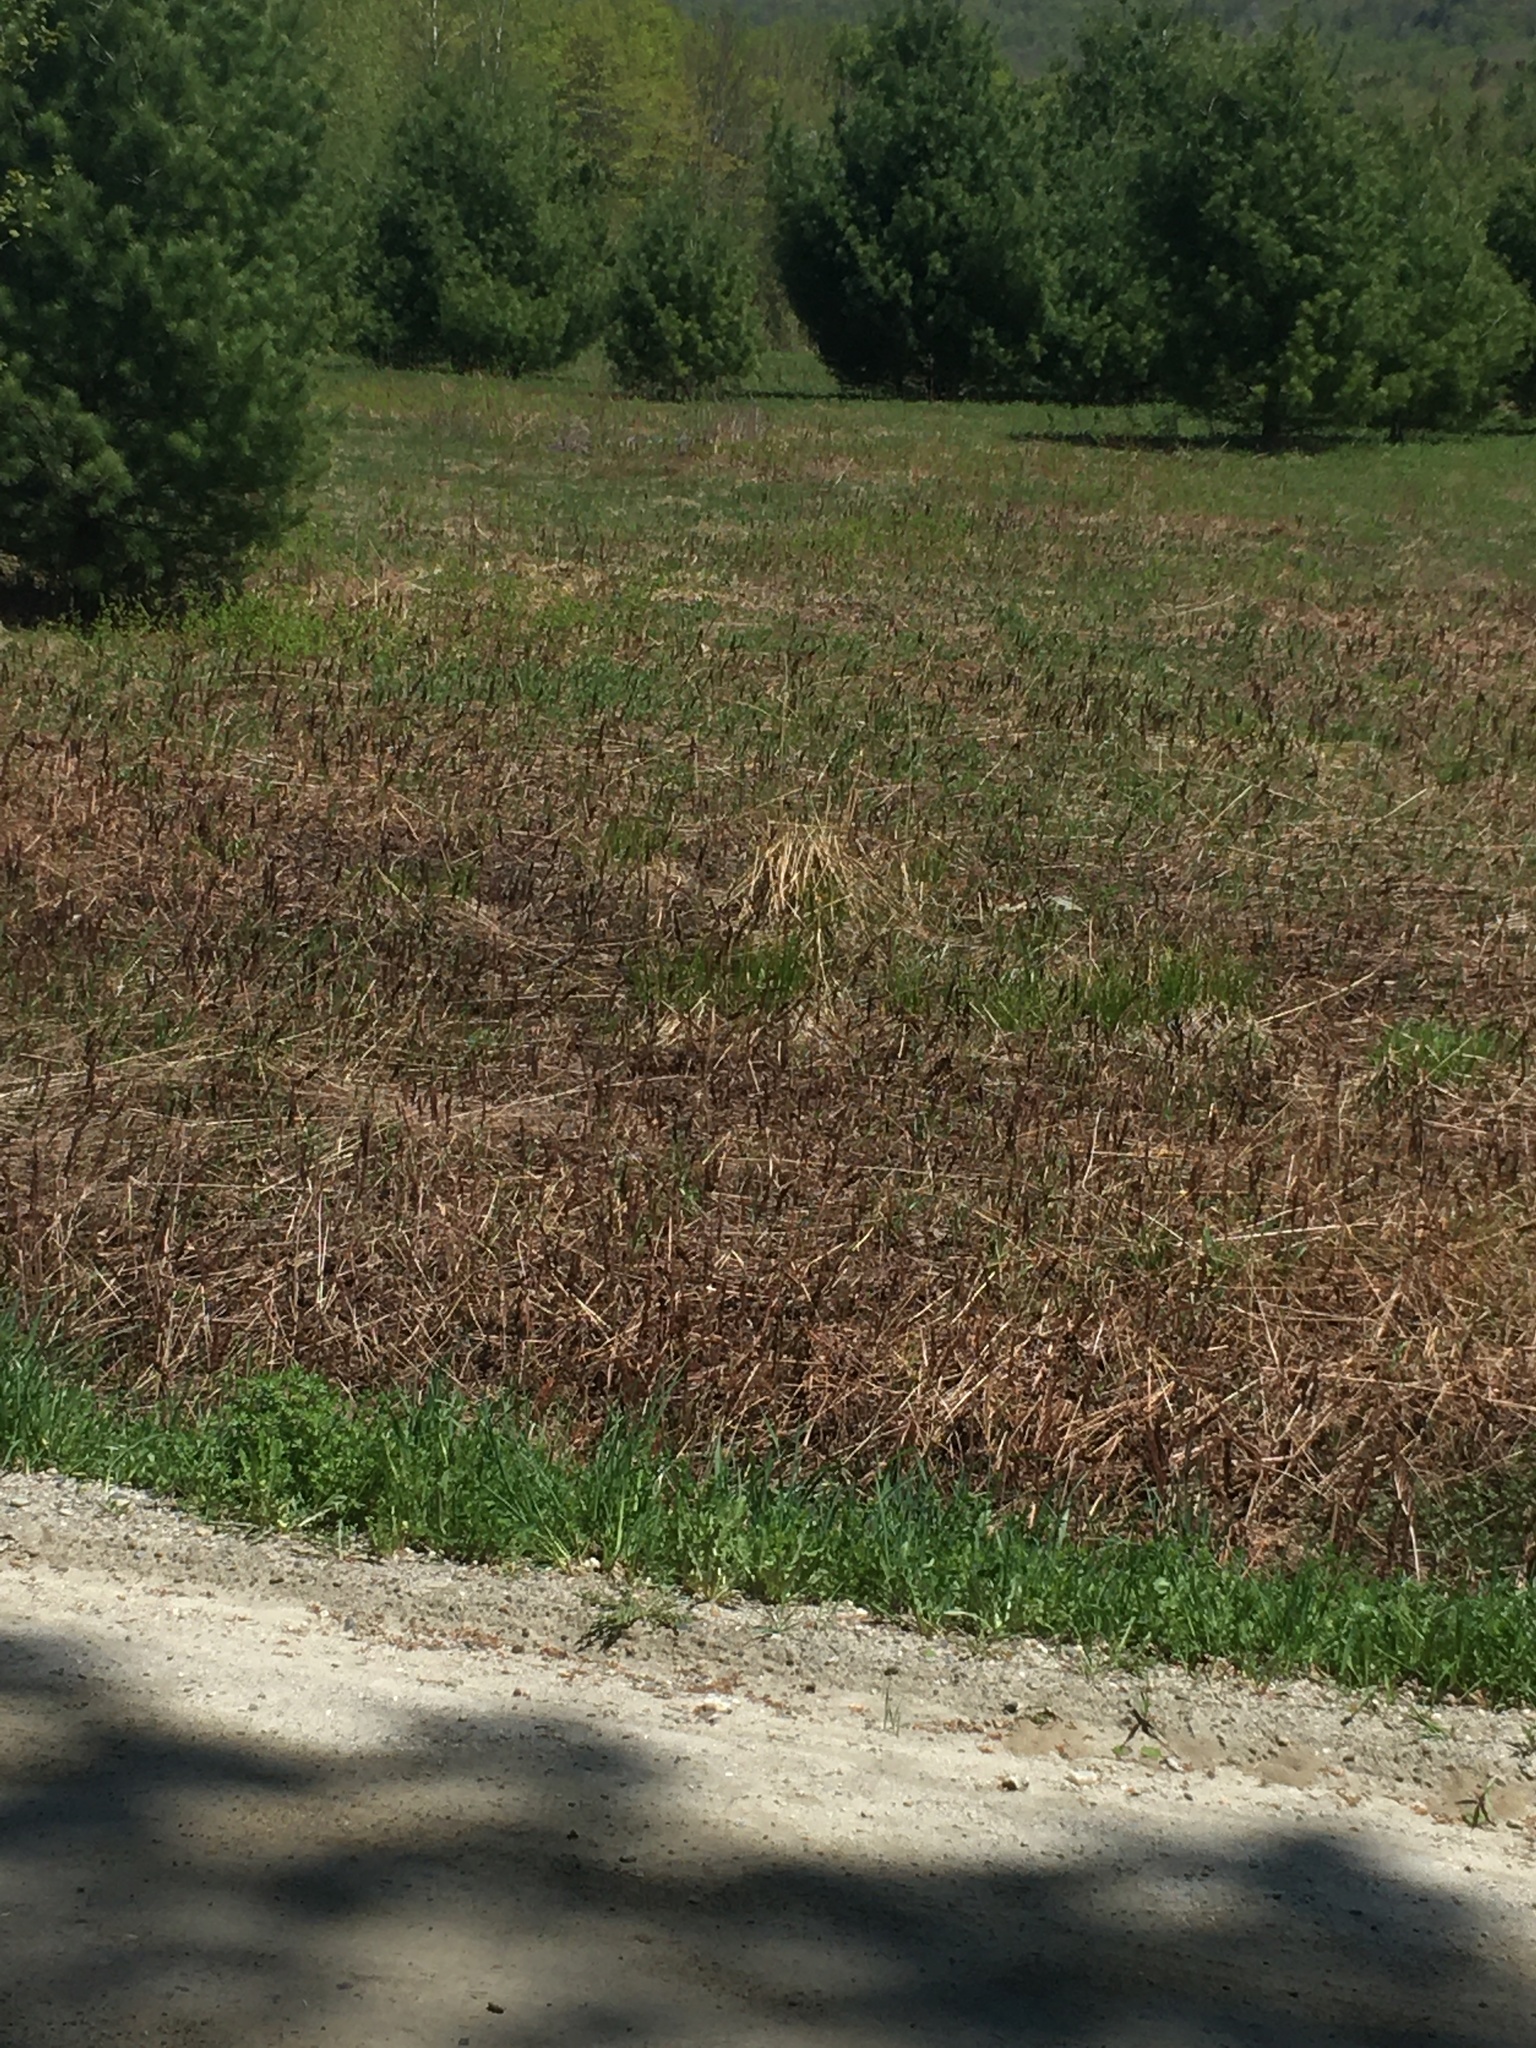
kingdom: Plantae
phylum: Tracheophyta
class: Polypodiopsida
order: Polypodiales
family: Onocleaceae
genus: Onoclea
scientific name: Onoclea sensibilis
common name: Sensitive fern
